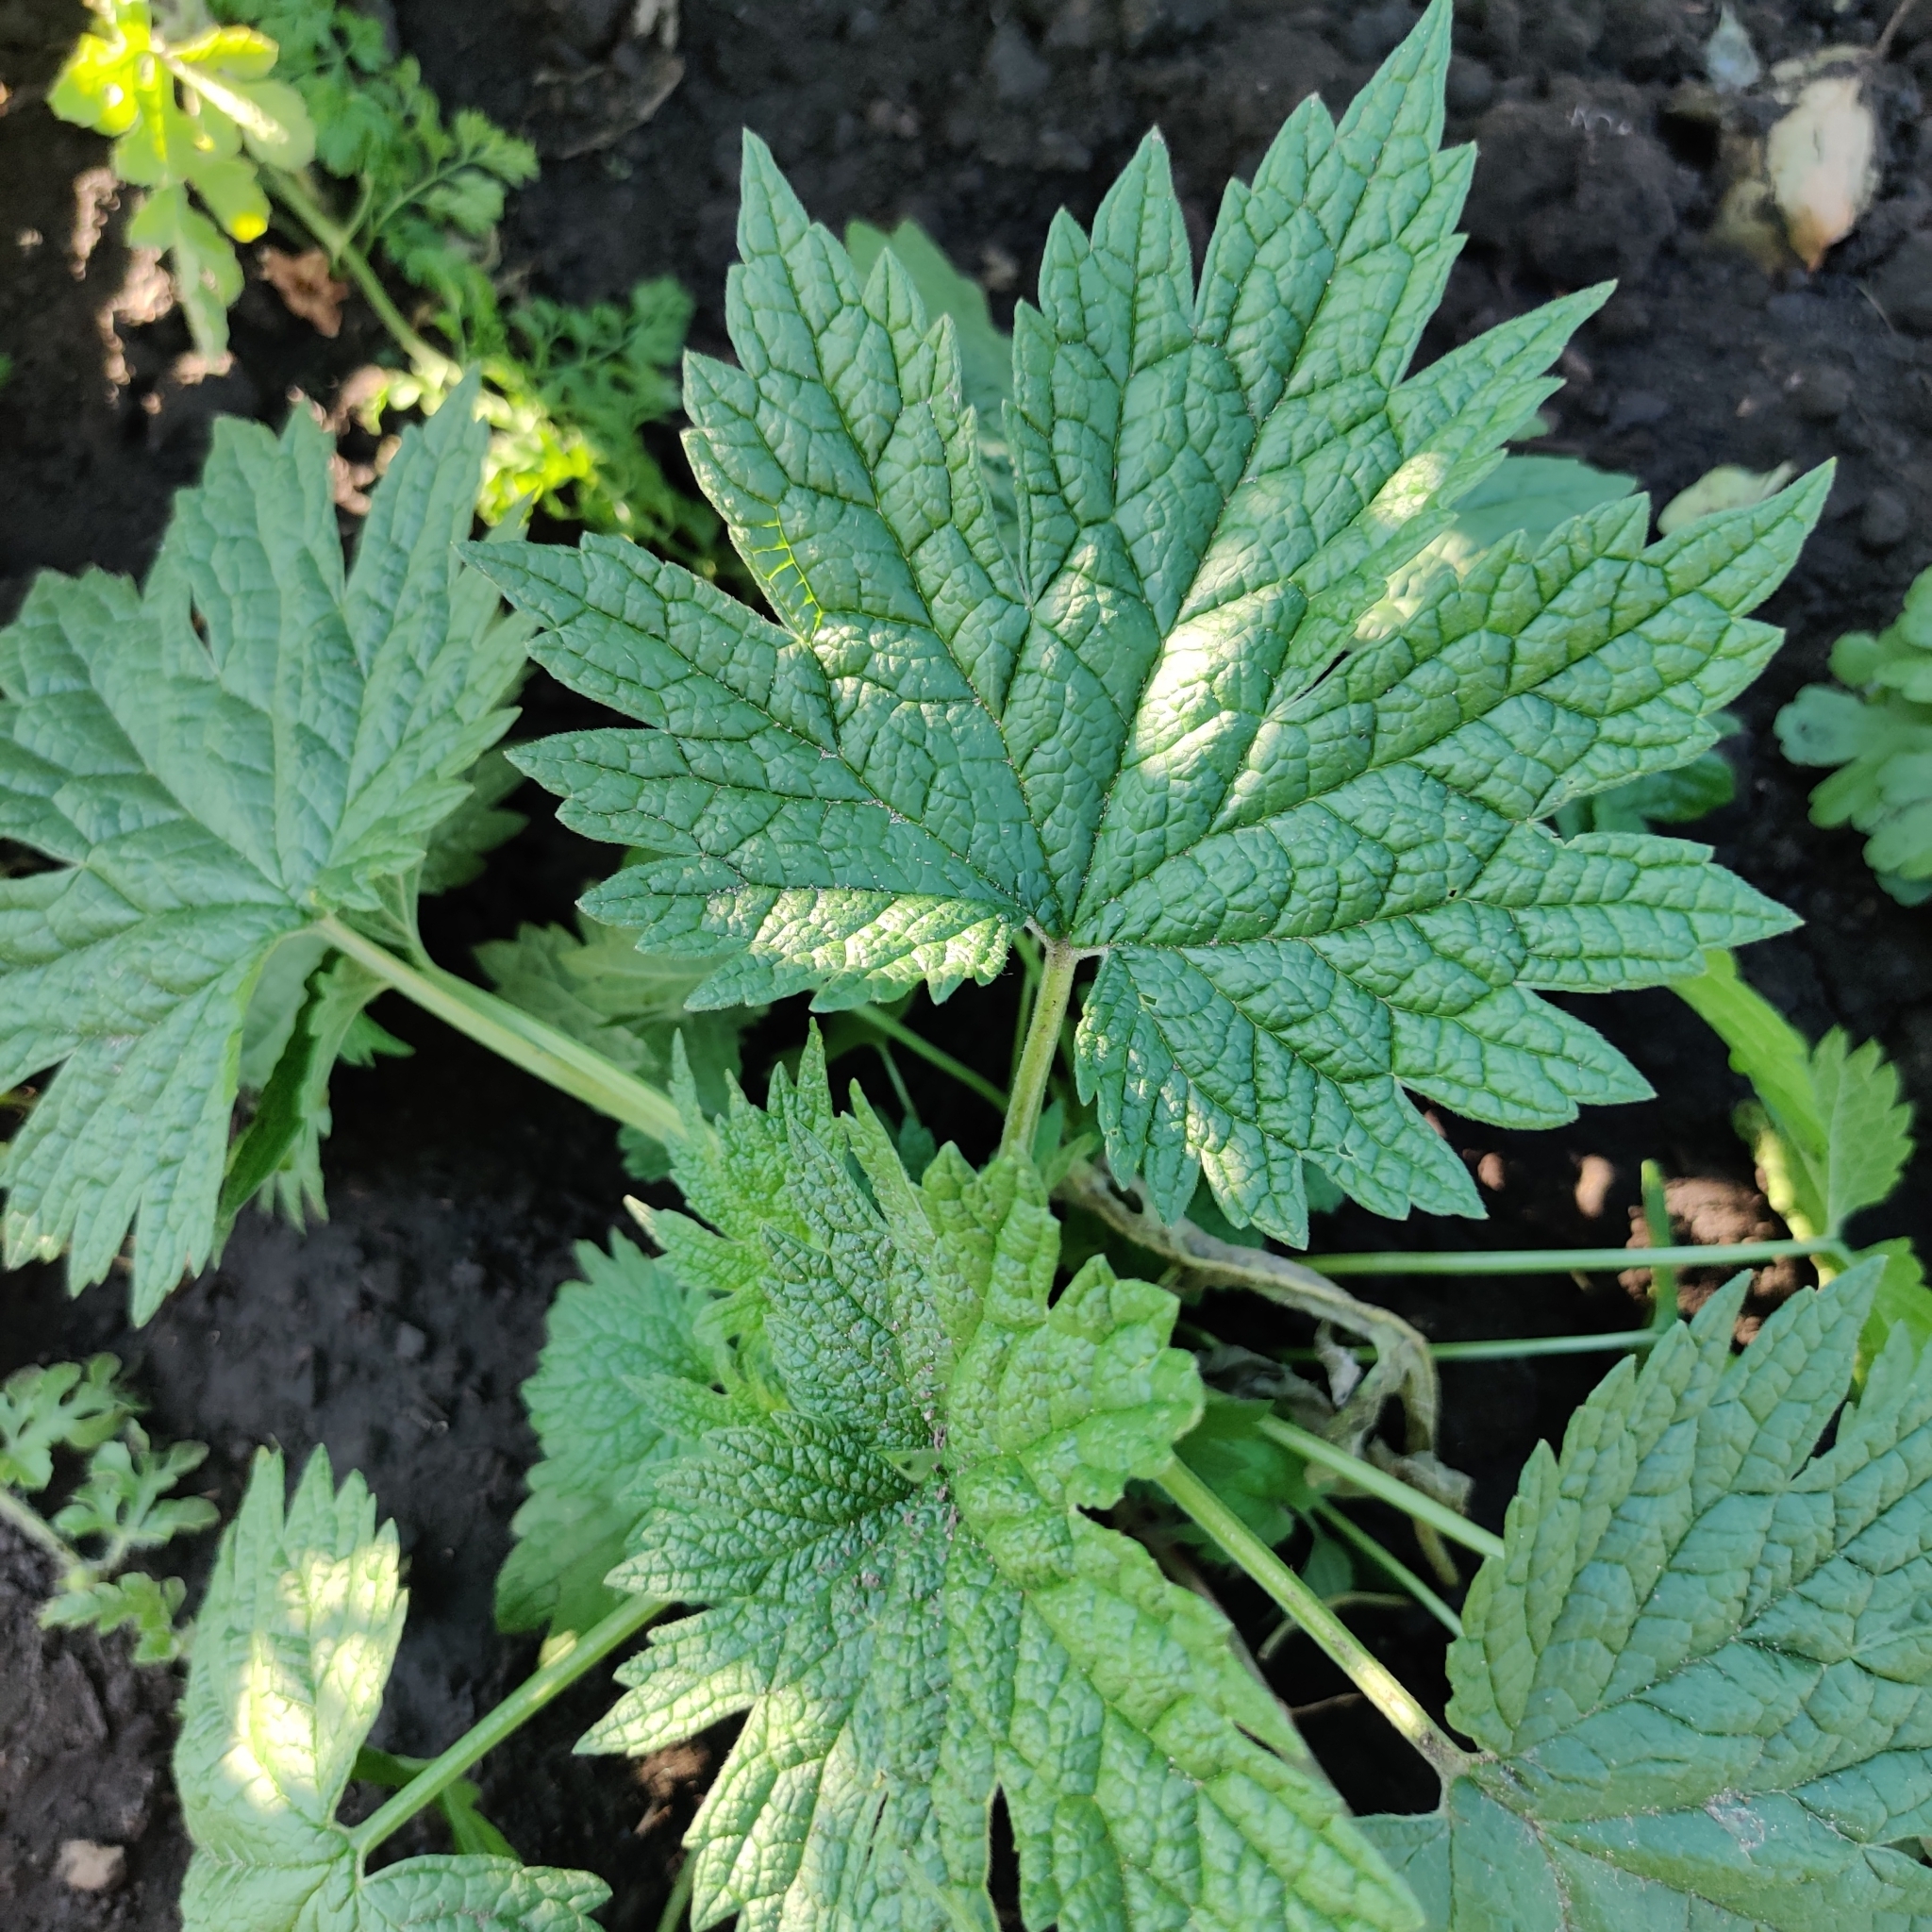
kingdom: Plantae
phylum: Tracheophyta
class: Magnoliopsida
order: Lamiales
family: Lamiaceae
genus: Leonurus
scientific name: Leonurus cardiaca
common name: Motherwort
